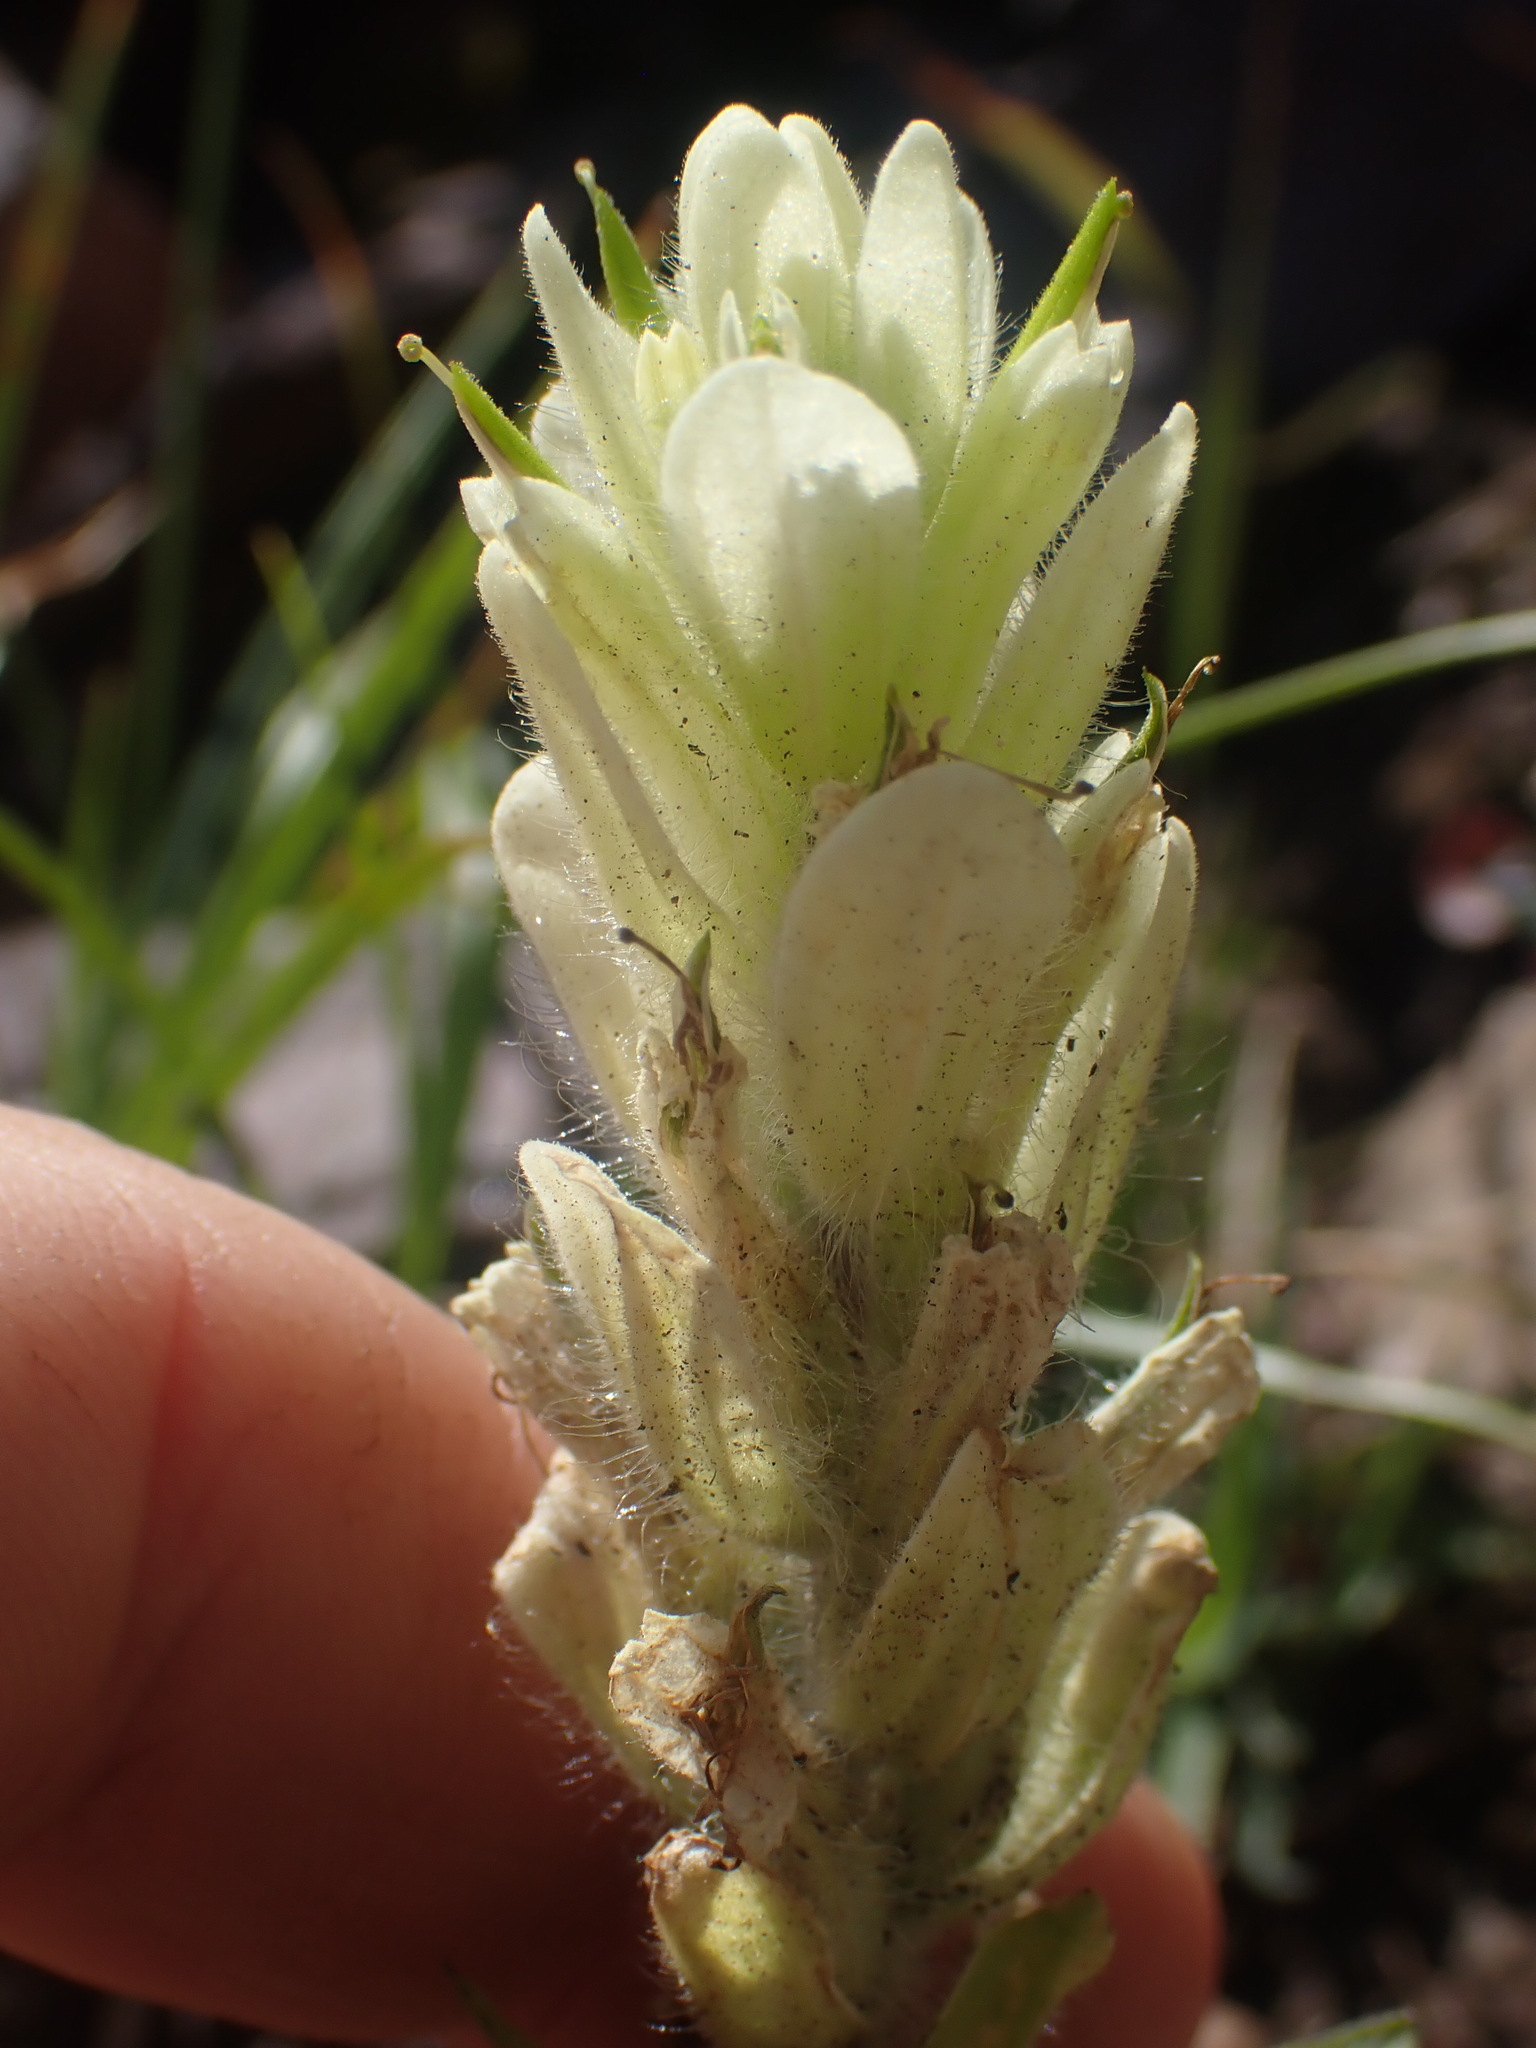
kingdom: Plantae
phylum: Tracheophyta
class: Magnoliopsida
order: Lamiales
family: Orobanchaceae
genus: Castilleja
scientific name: Castilleja occidentalis
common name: Western paintbrush
